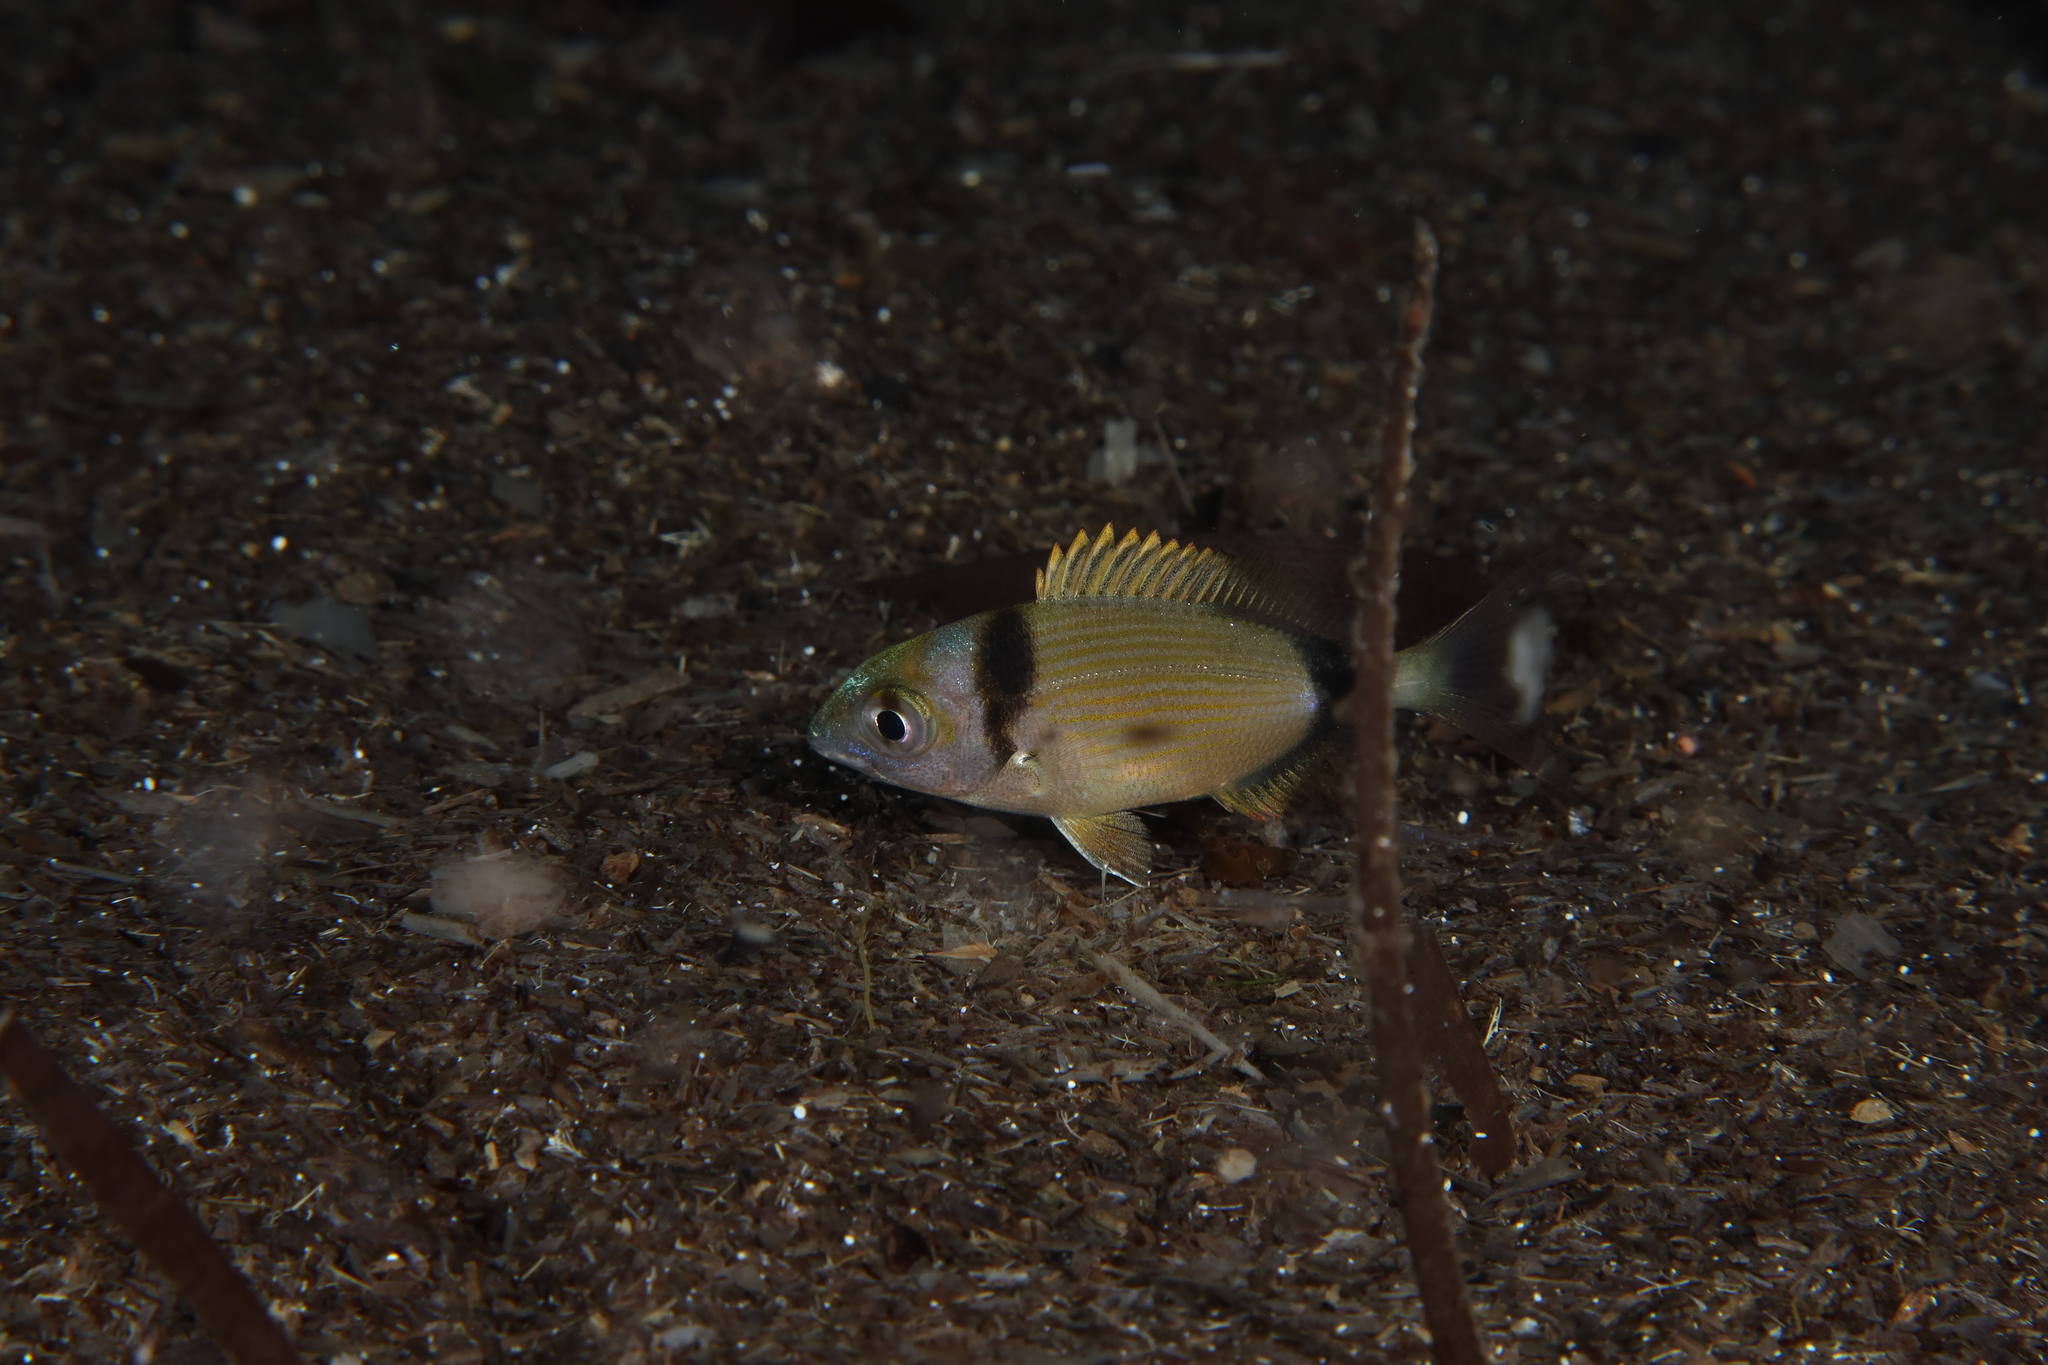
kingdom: Animalia
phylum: Chordata
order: Perciformes
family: Sparidae
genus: Diplodus
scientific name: Diplodus vulgaris
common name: Common two-banded seabream
